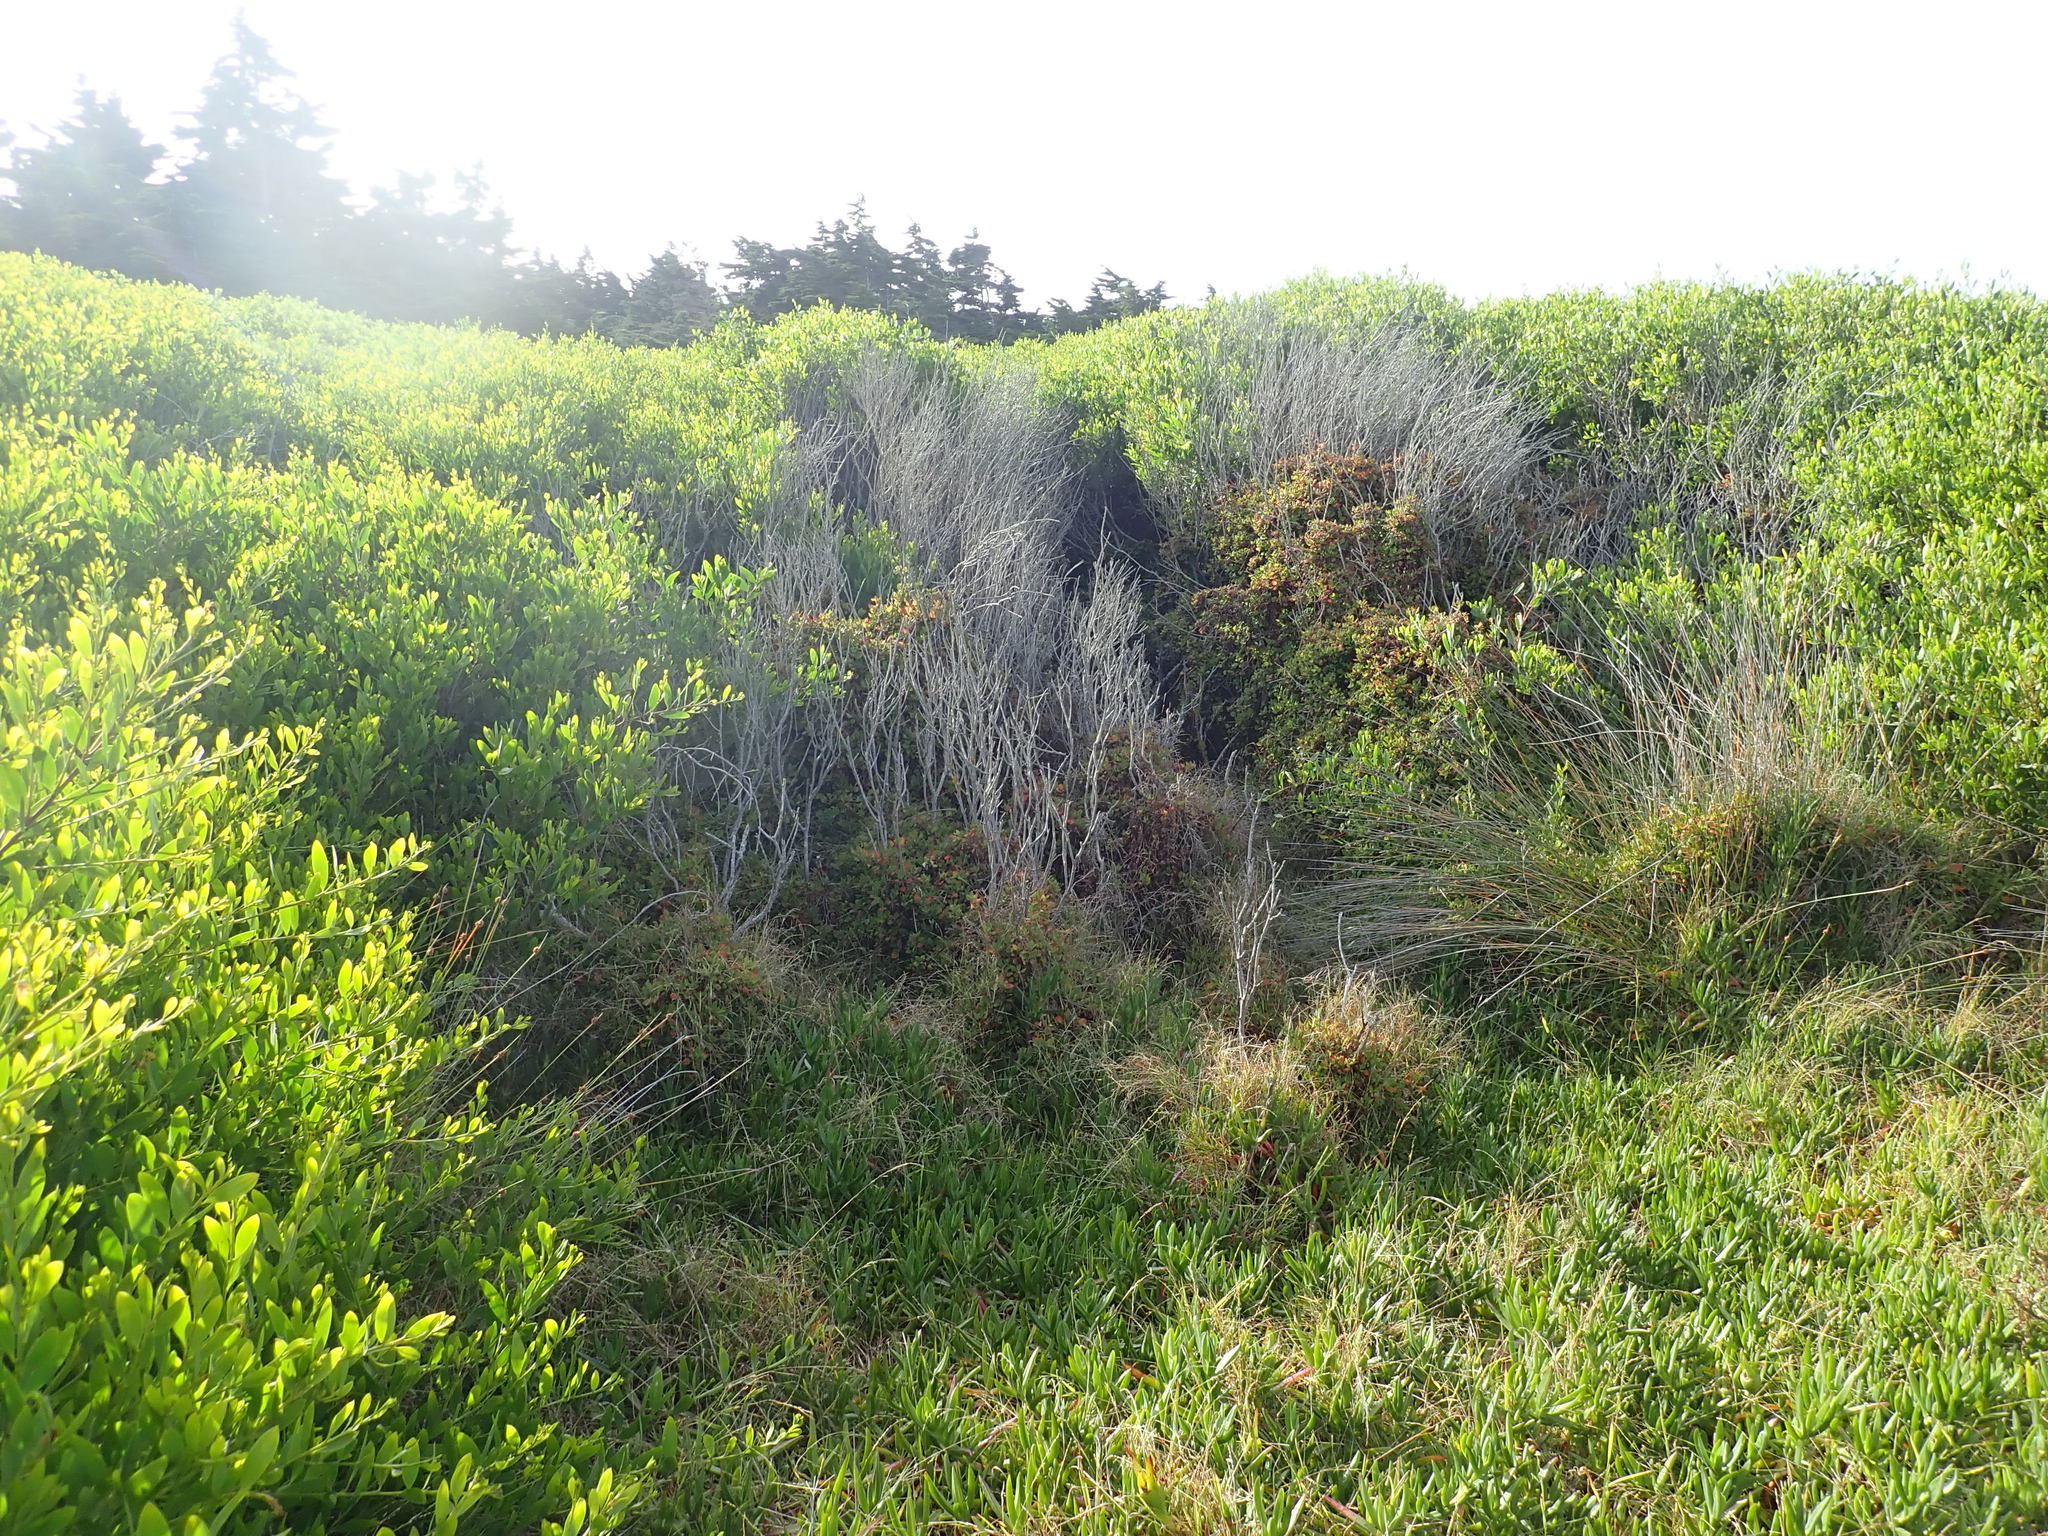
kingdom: Plantae
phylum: Tracheophyta
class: Magnoliopsida
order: Caryophyllales
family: Aizoaceae
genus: Tetragonia
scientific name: Tetragonia implexicoma
